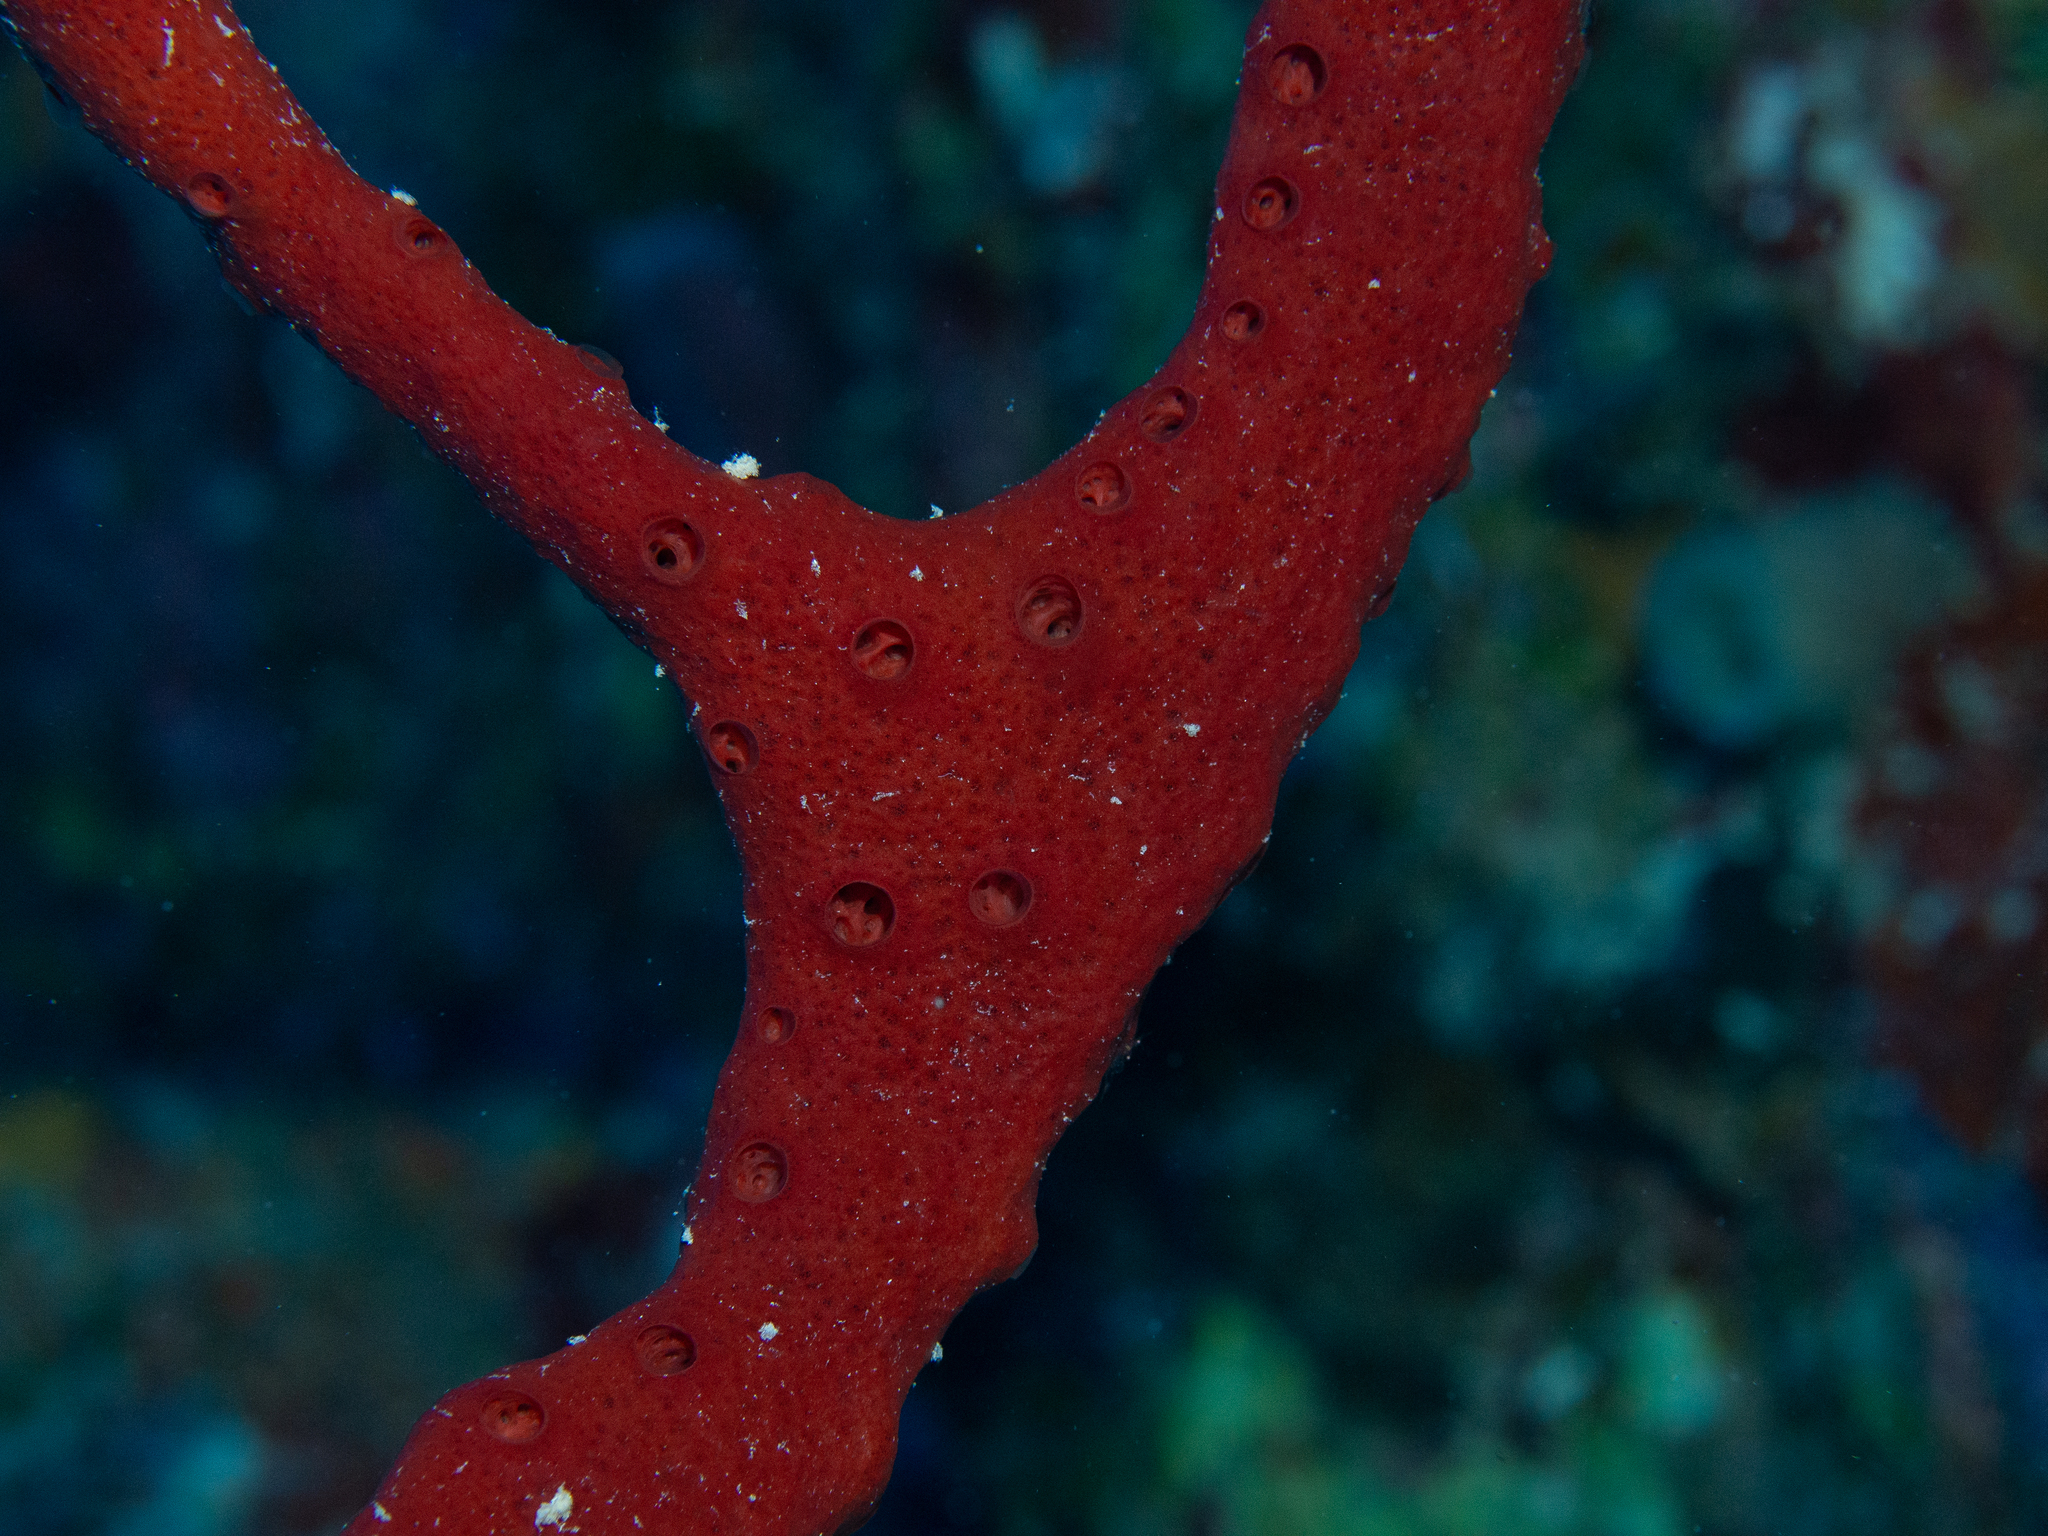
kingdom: Animalia
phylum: Porifera
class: Demospongiae
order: Haplosclerida
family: Niphatidae
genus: Amphimedon
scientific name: Amphimedon compressa
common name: Red sponge
